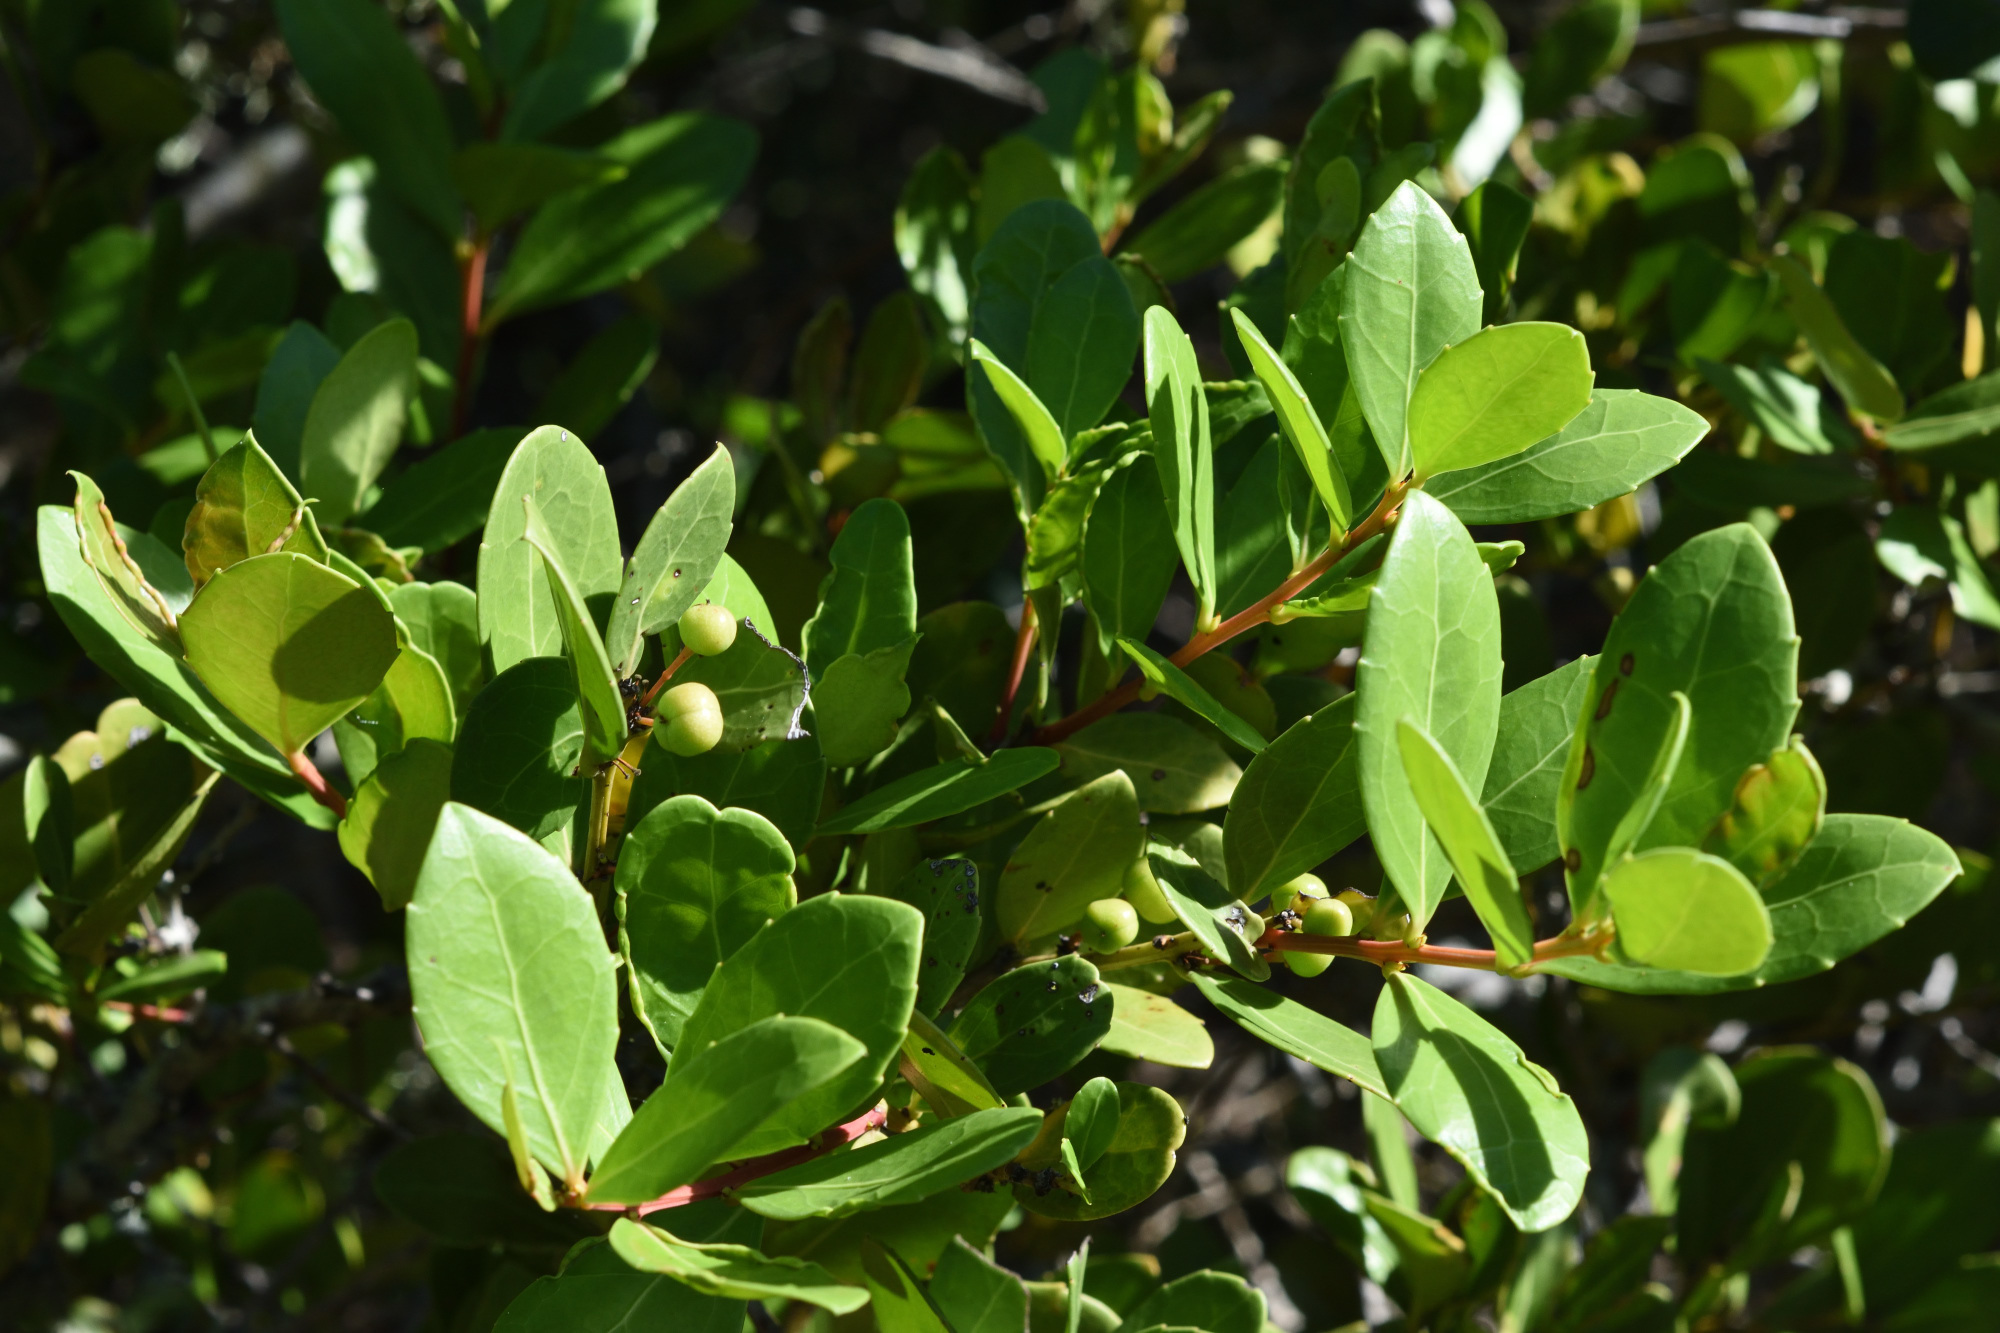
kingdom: Plantae
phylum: Tracheophyta
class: Magnoliopsida
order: Celastrales
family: Celastraceae
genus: Gymnosporia
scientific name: Gymnosporia procumbens
